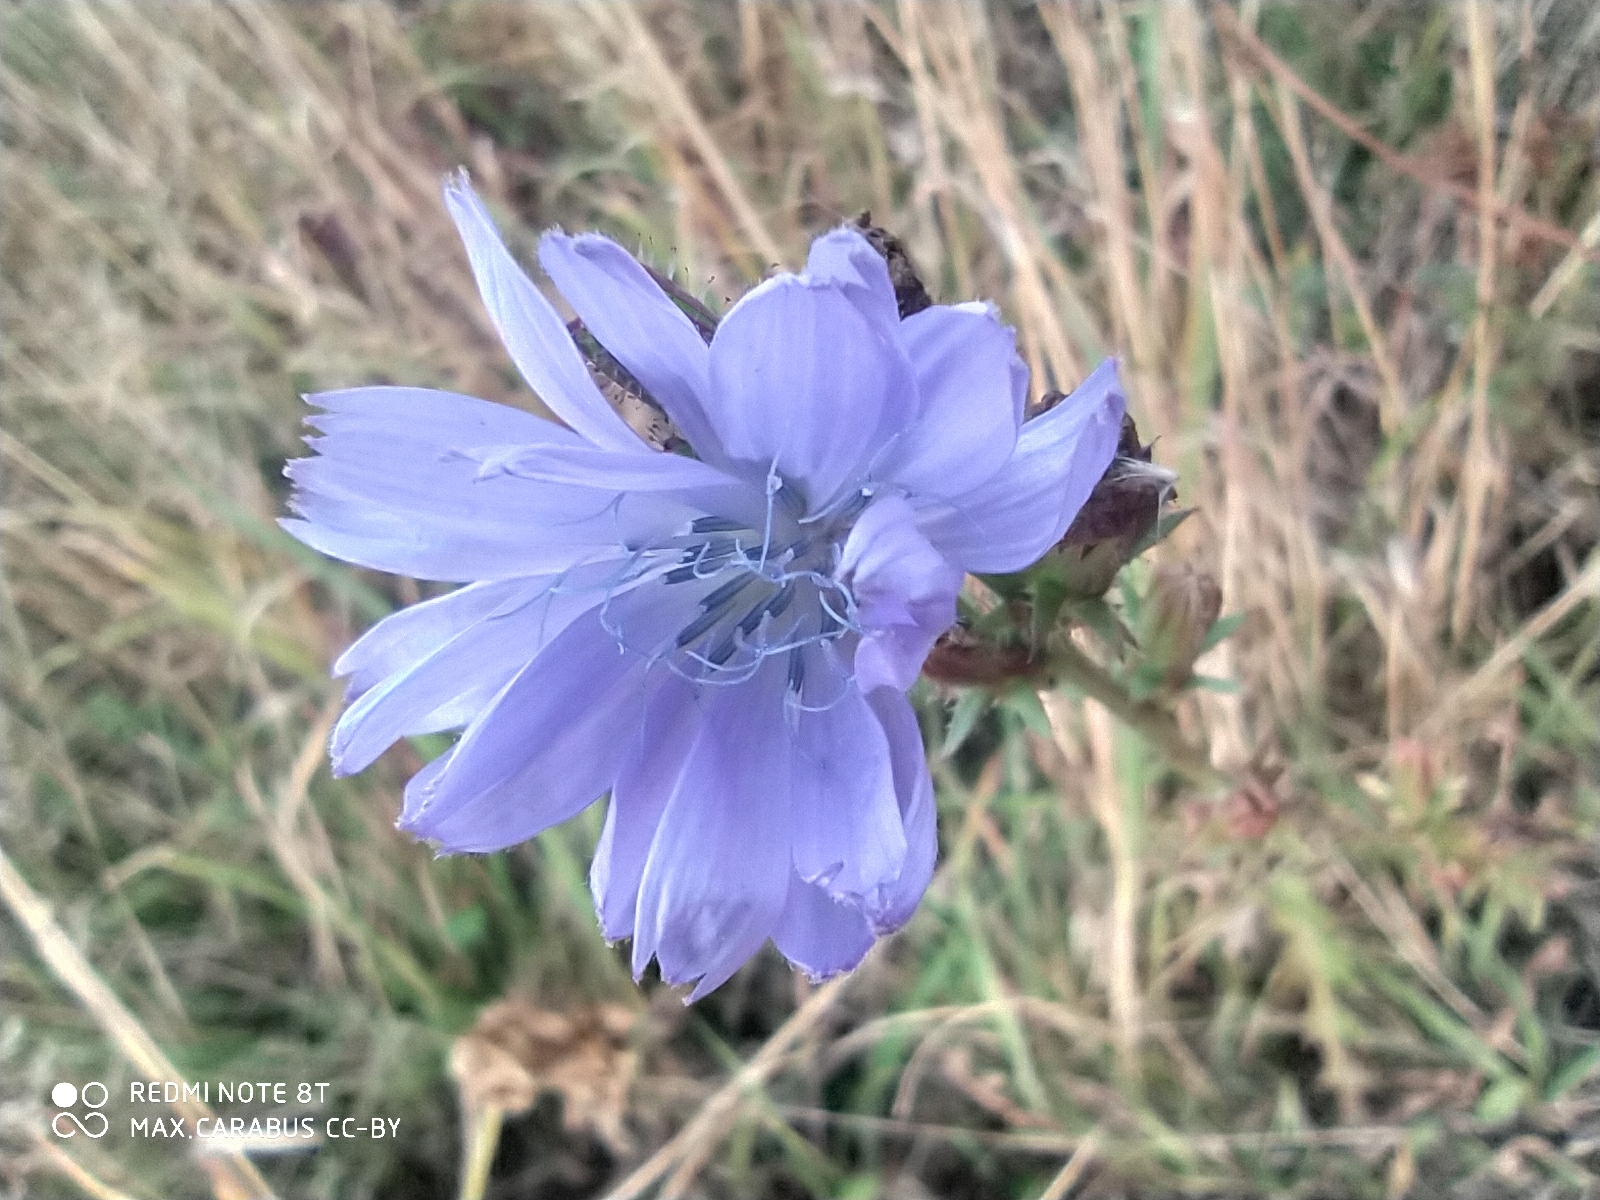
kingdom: Plantae
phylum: Tracheophyta
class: Magnoliopsida
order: Asterales
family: Asteraceae
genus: Cichorium
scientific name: Cichorium intybus
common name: Chicory
